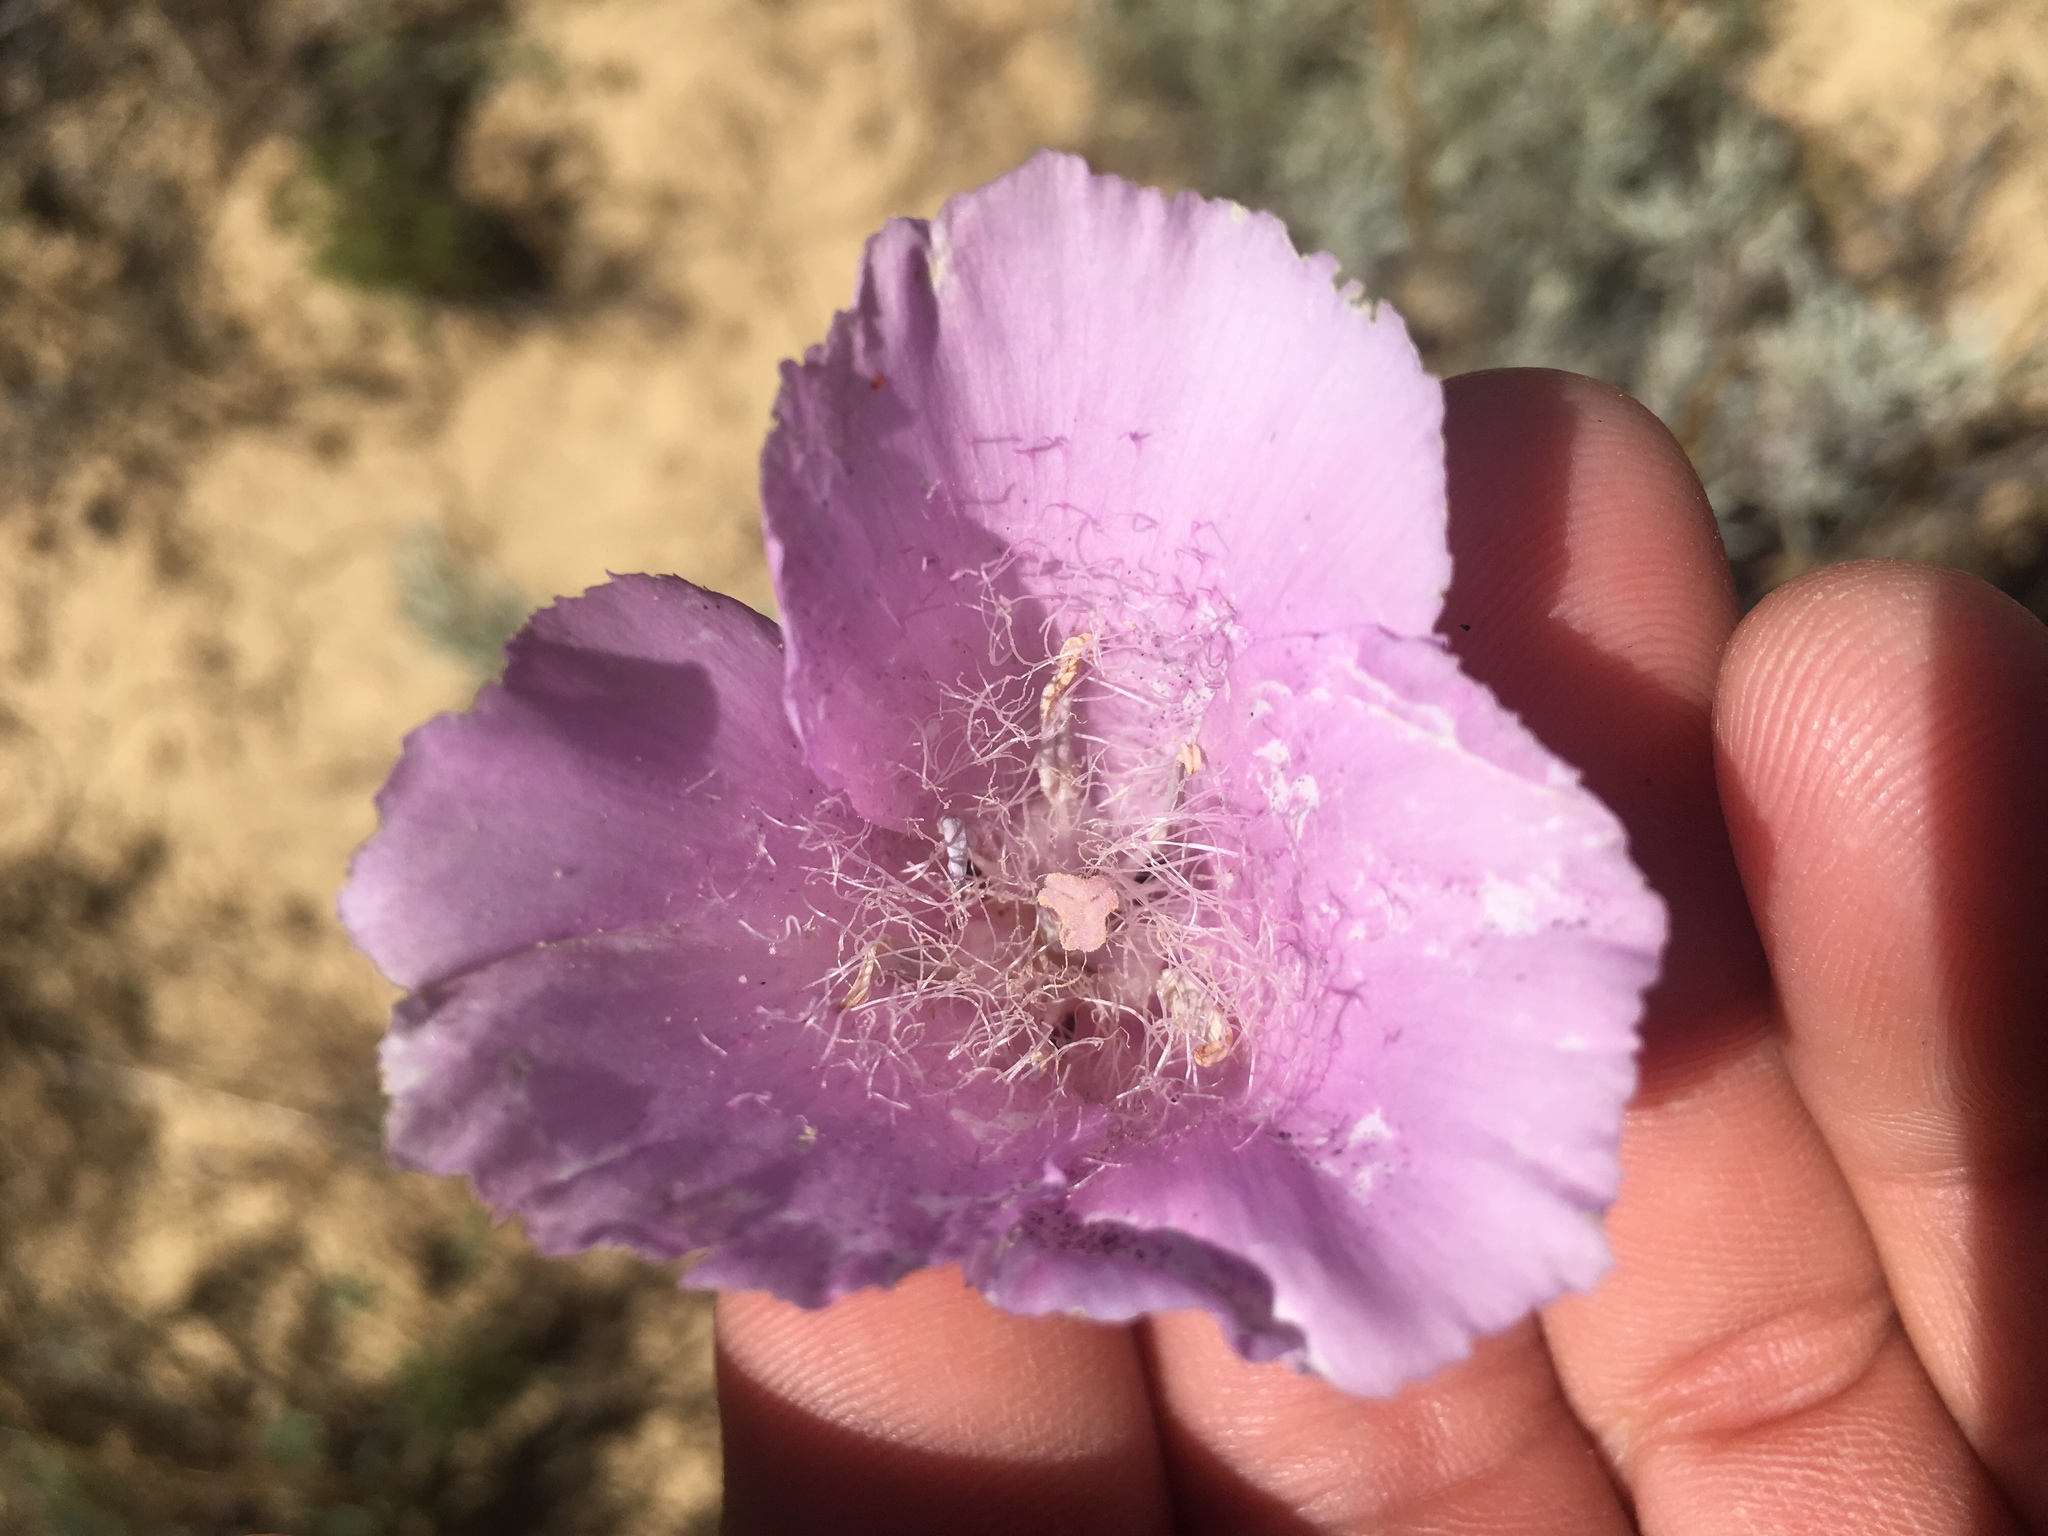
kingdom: Plantae
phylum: Tracheophyta
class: Liliopsida
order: Liliales
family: Liliaceae
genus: Calochortus
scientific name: Calochortus splendens
